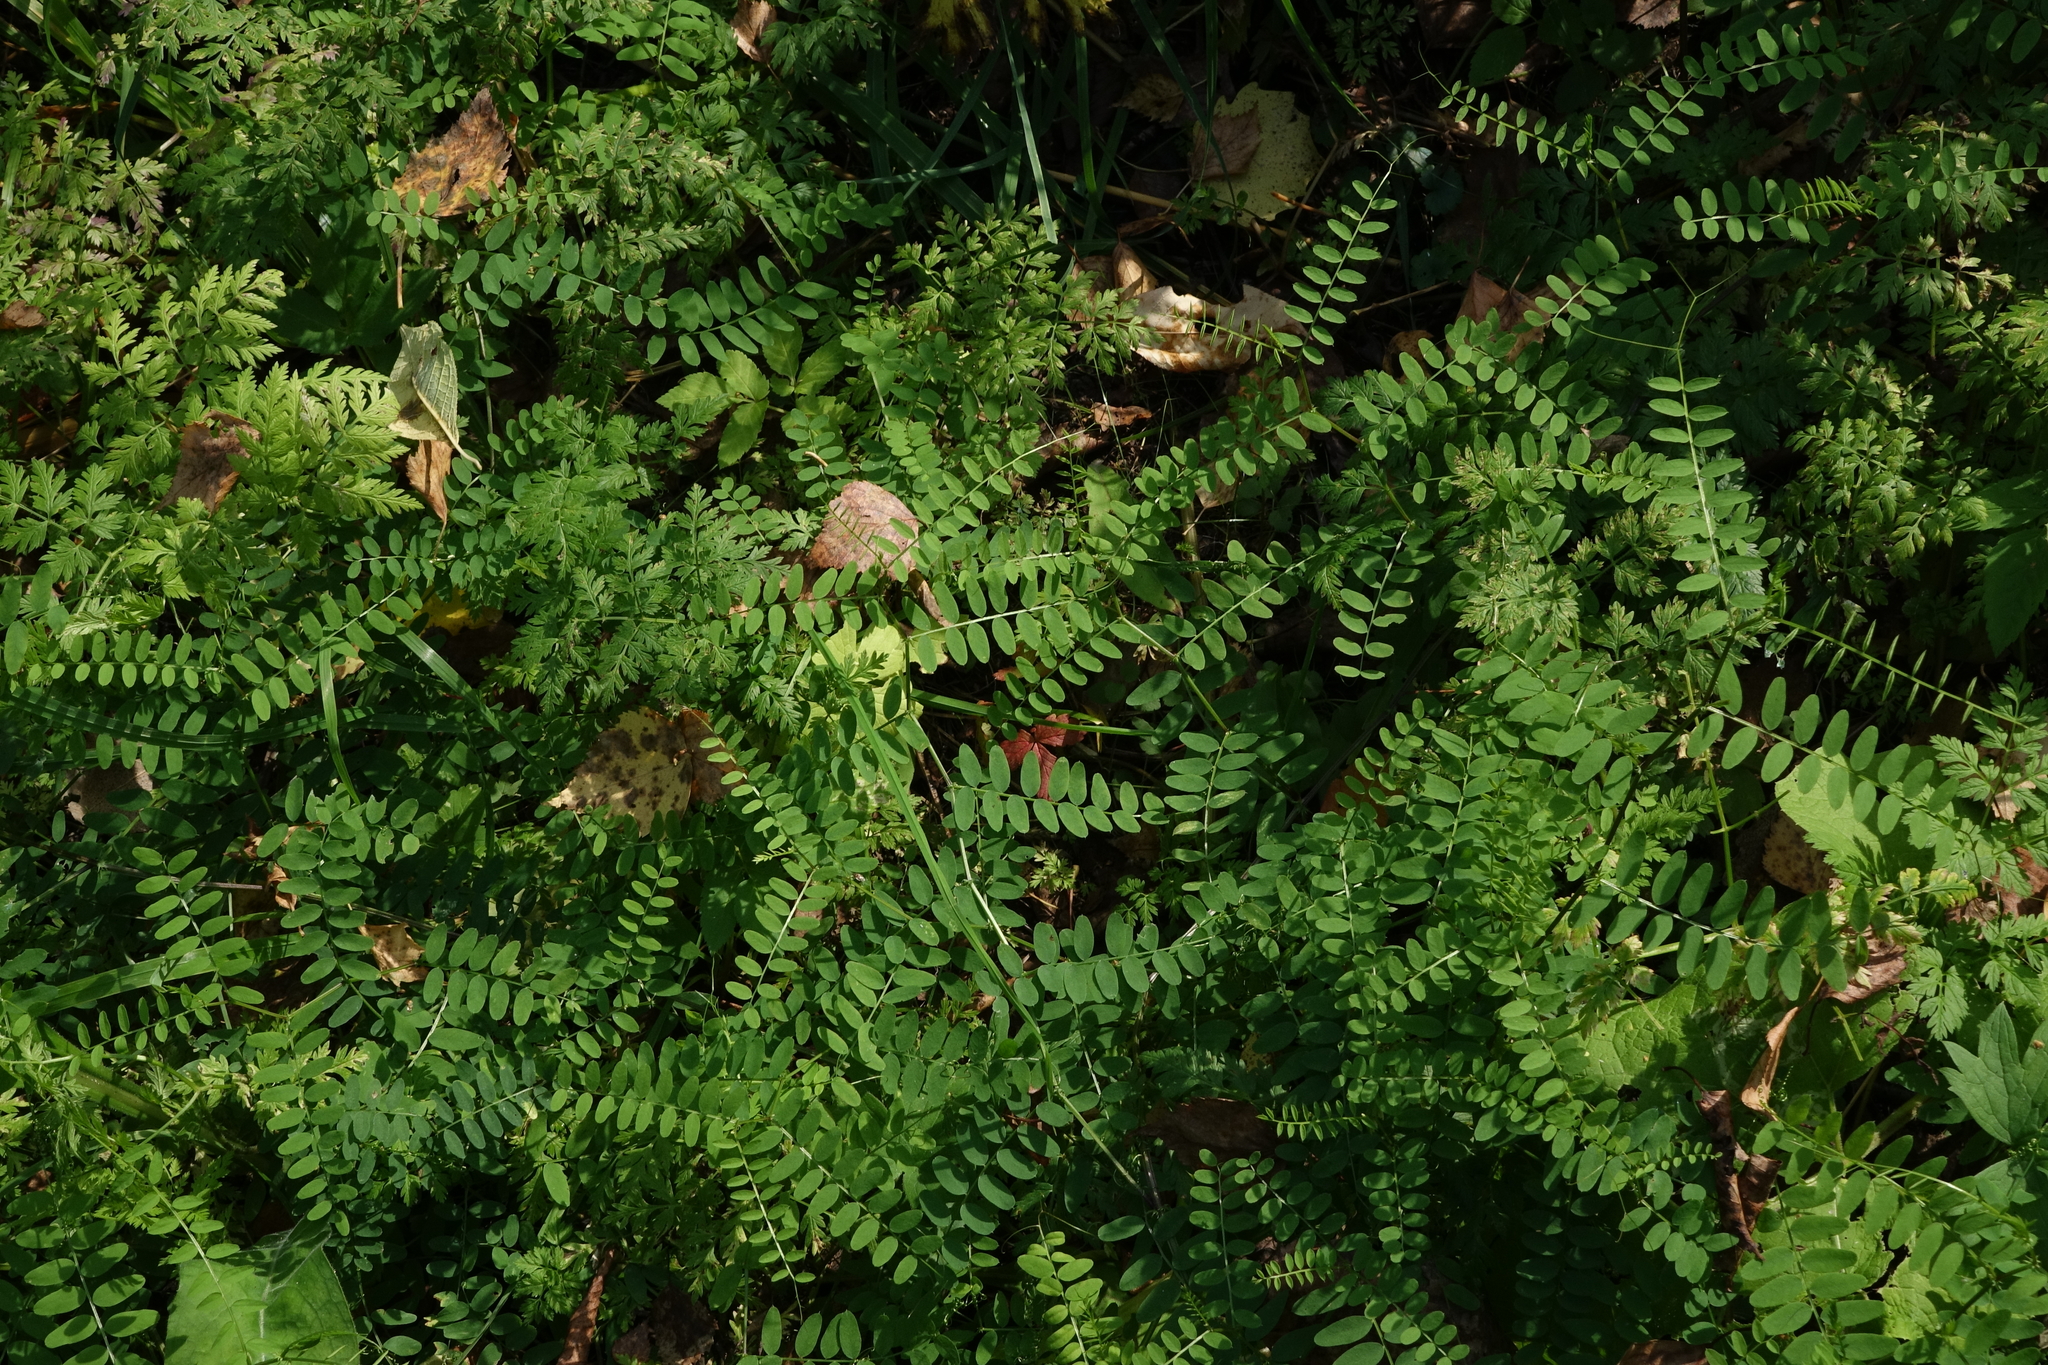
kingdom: Plantae
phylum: Tracheophyta
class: Magnoliopsida
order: Fabales
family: Fabaceae
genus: Vicia
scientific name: Vicia sylvatica
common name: Wood vetch
